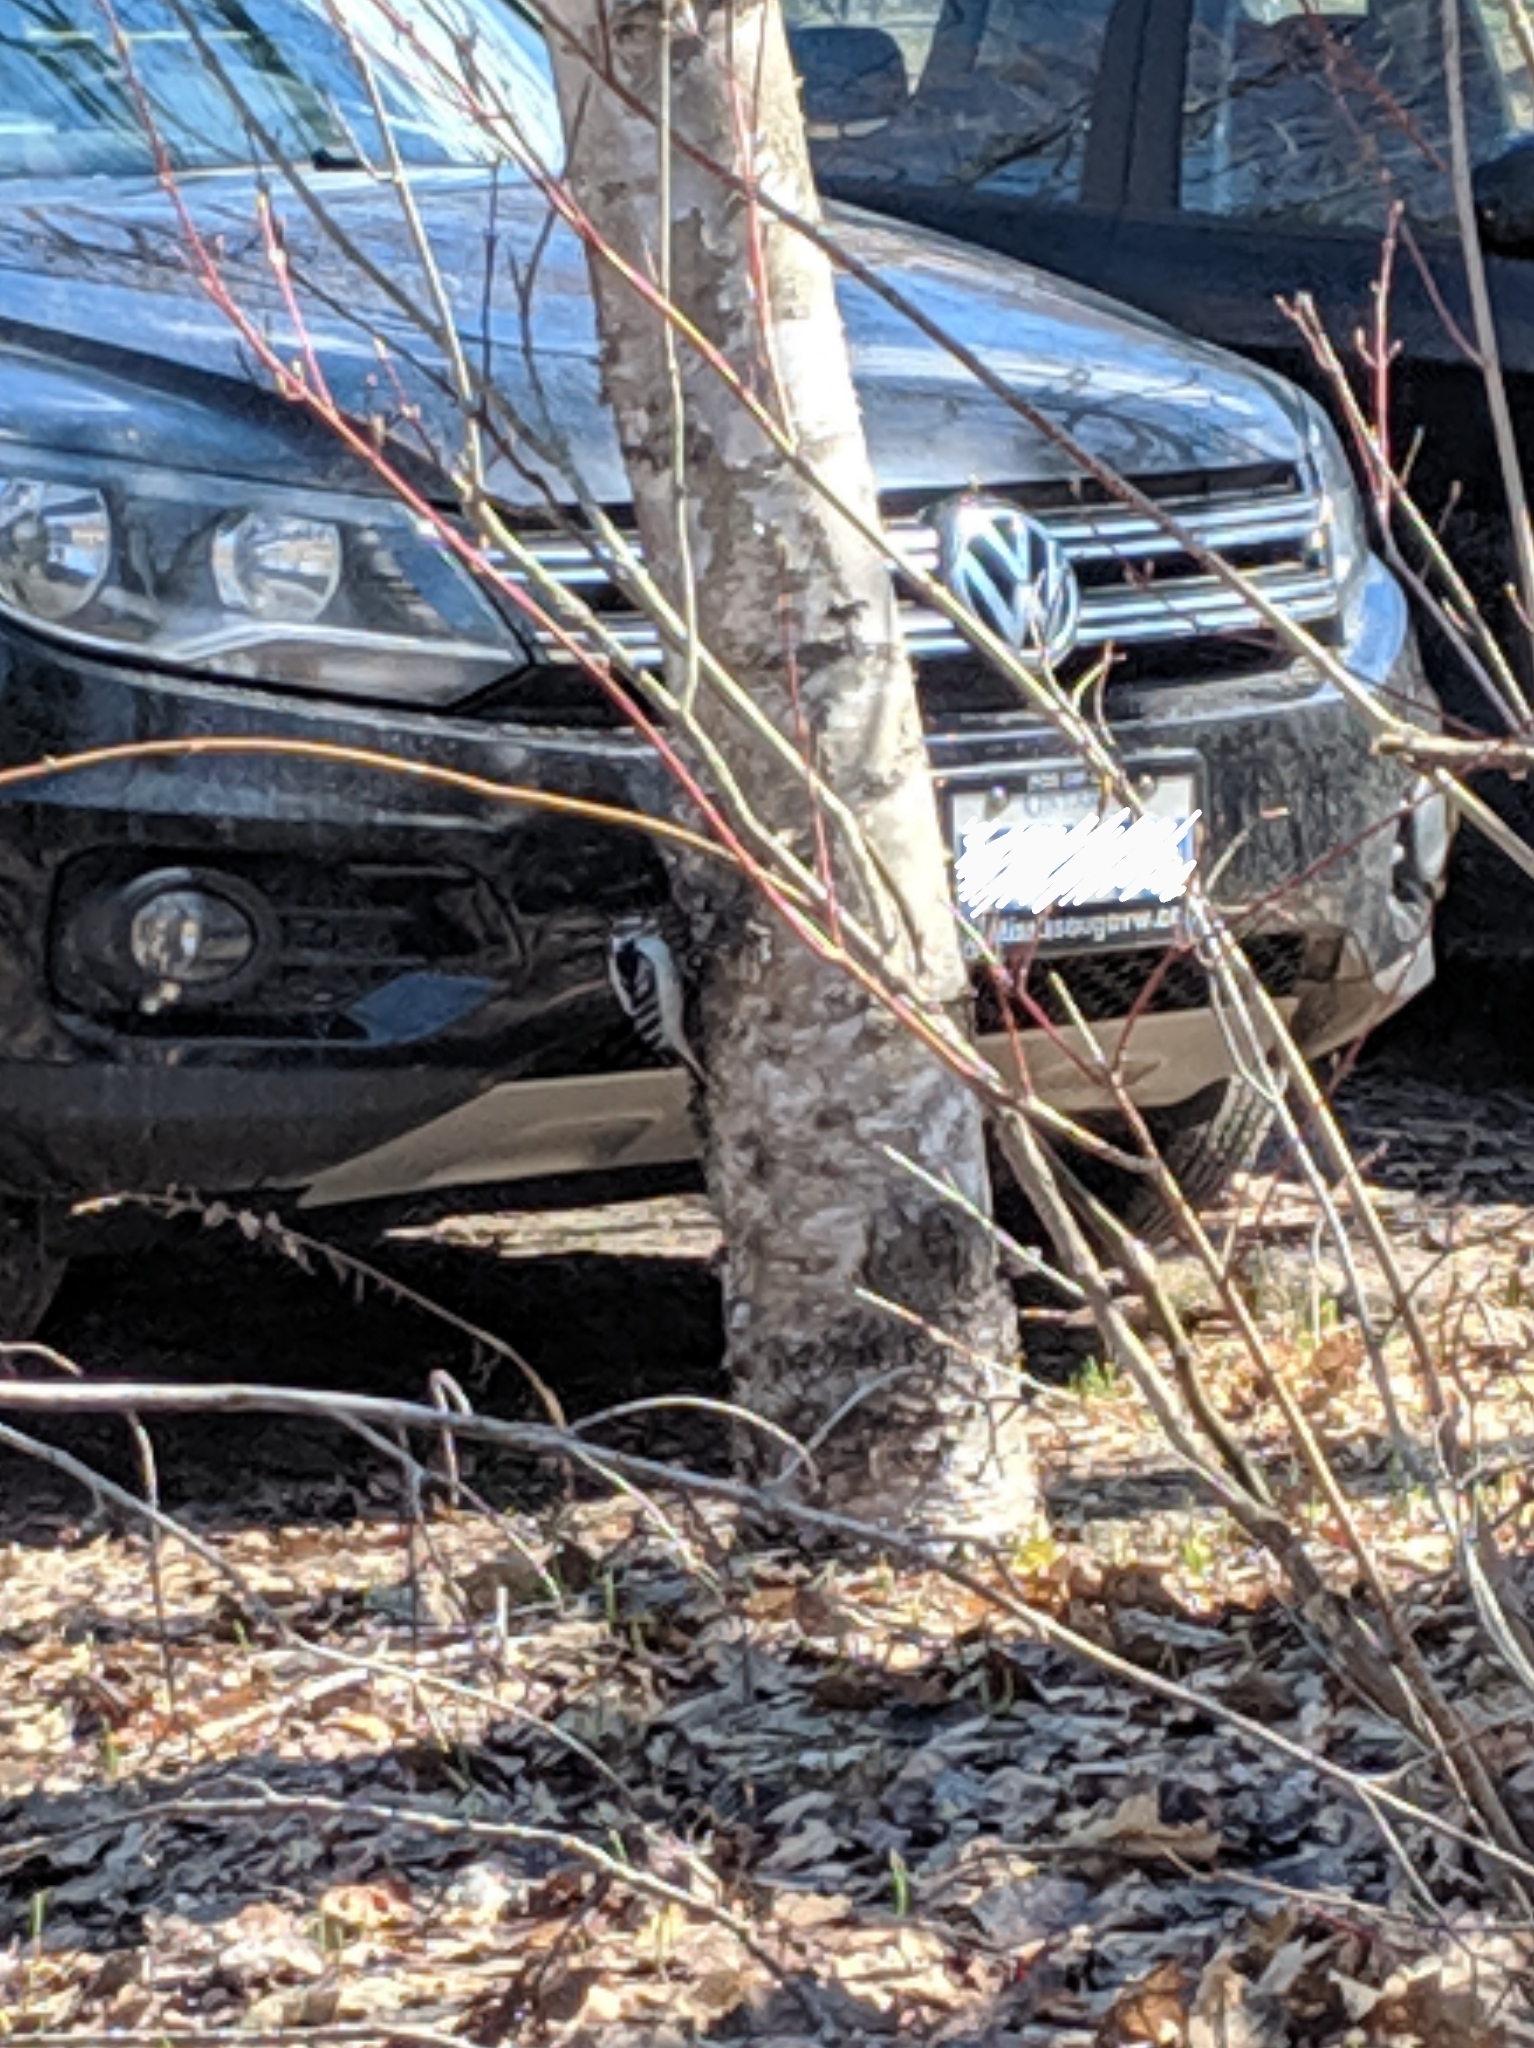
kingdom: Animalia
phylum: Chordata
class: Aves
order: Piciformes
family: Picidae
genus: Dryobates
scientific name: Dryobates pubescens
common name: Downy woodpecker
